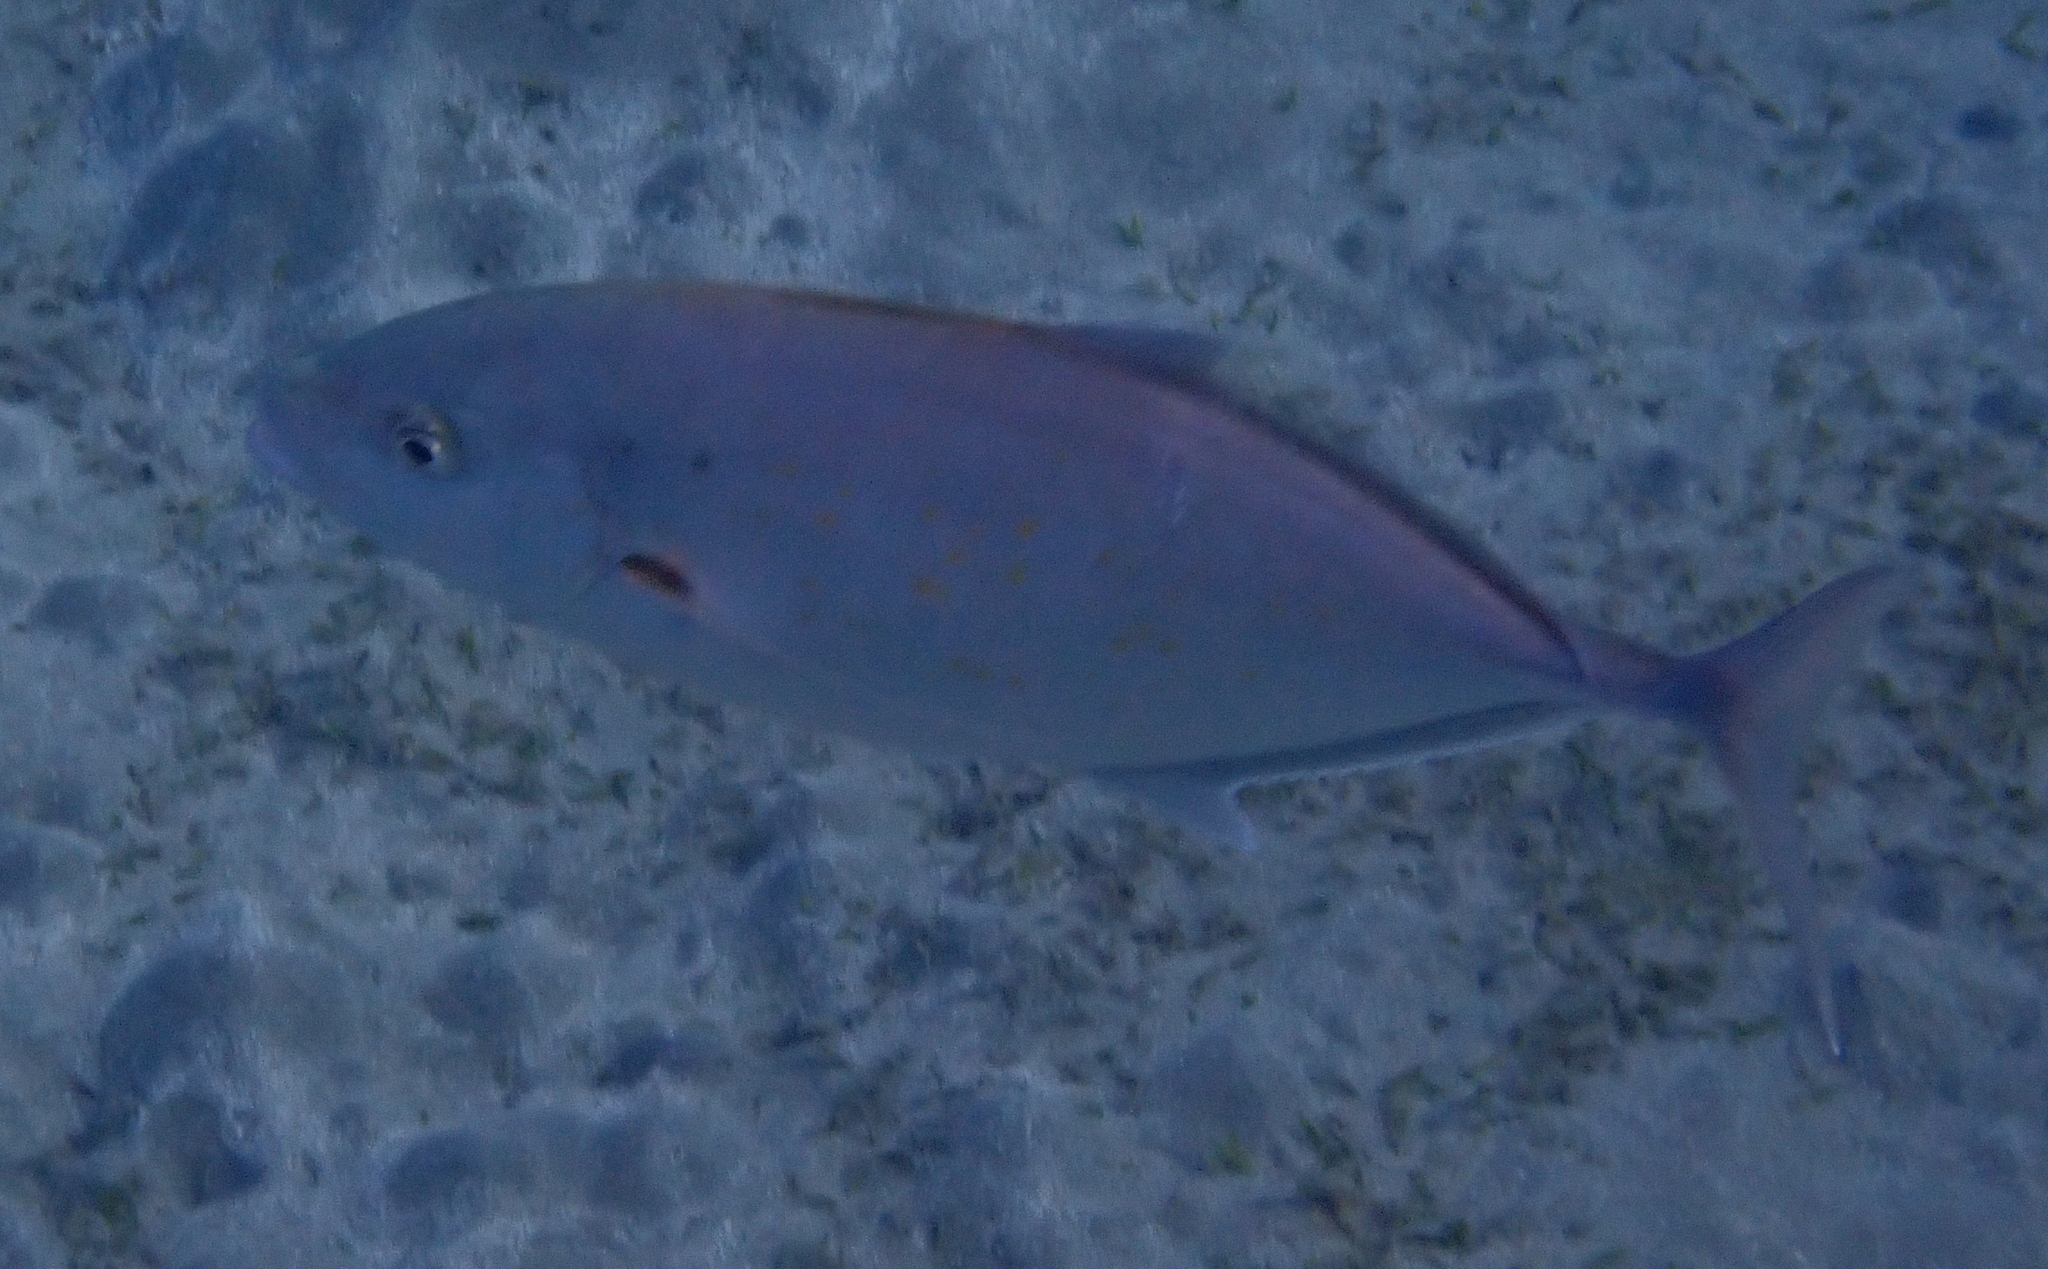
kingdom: Animalia
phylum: Chordata
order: Perciformes
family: Carangidae
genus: Flavocaranx
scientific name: Flavocaranx bajad
